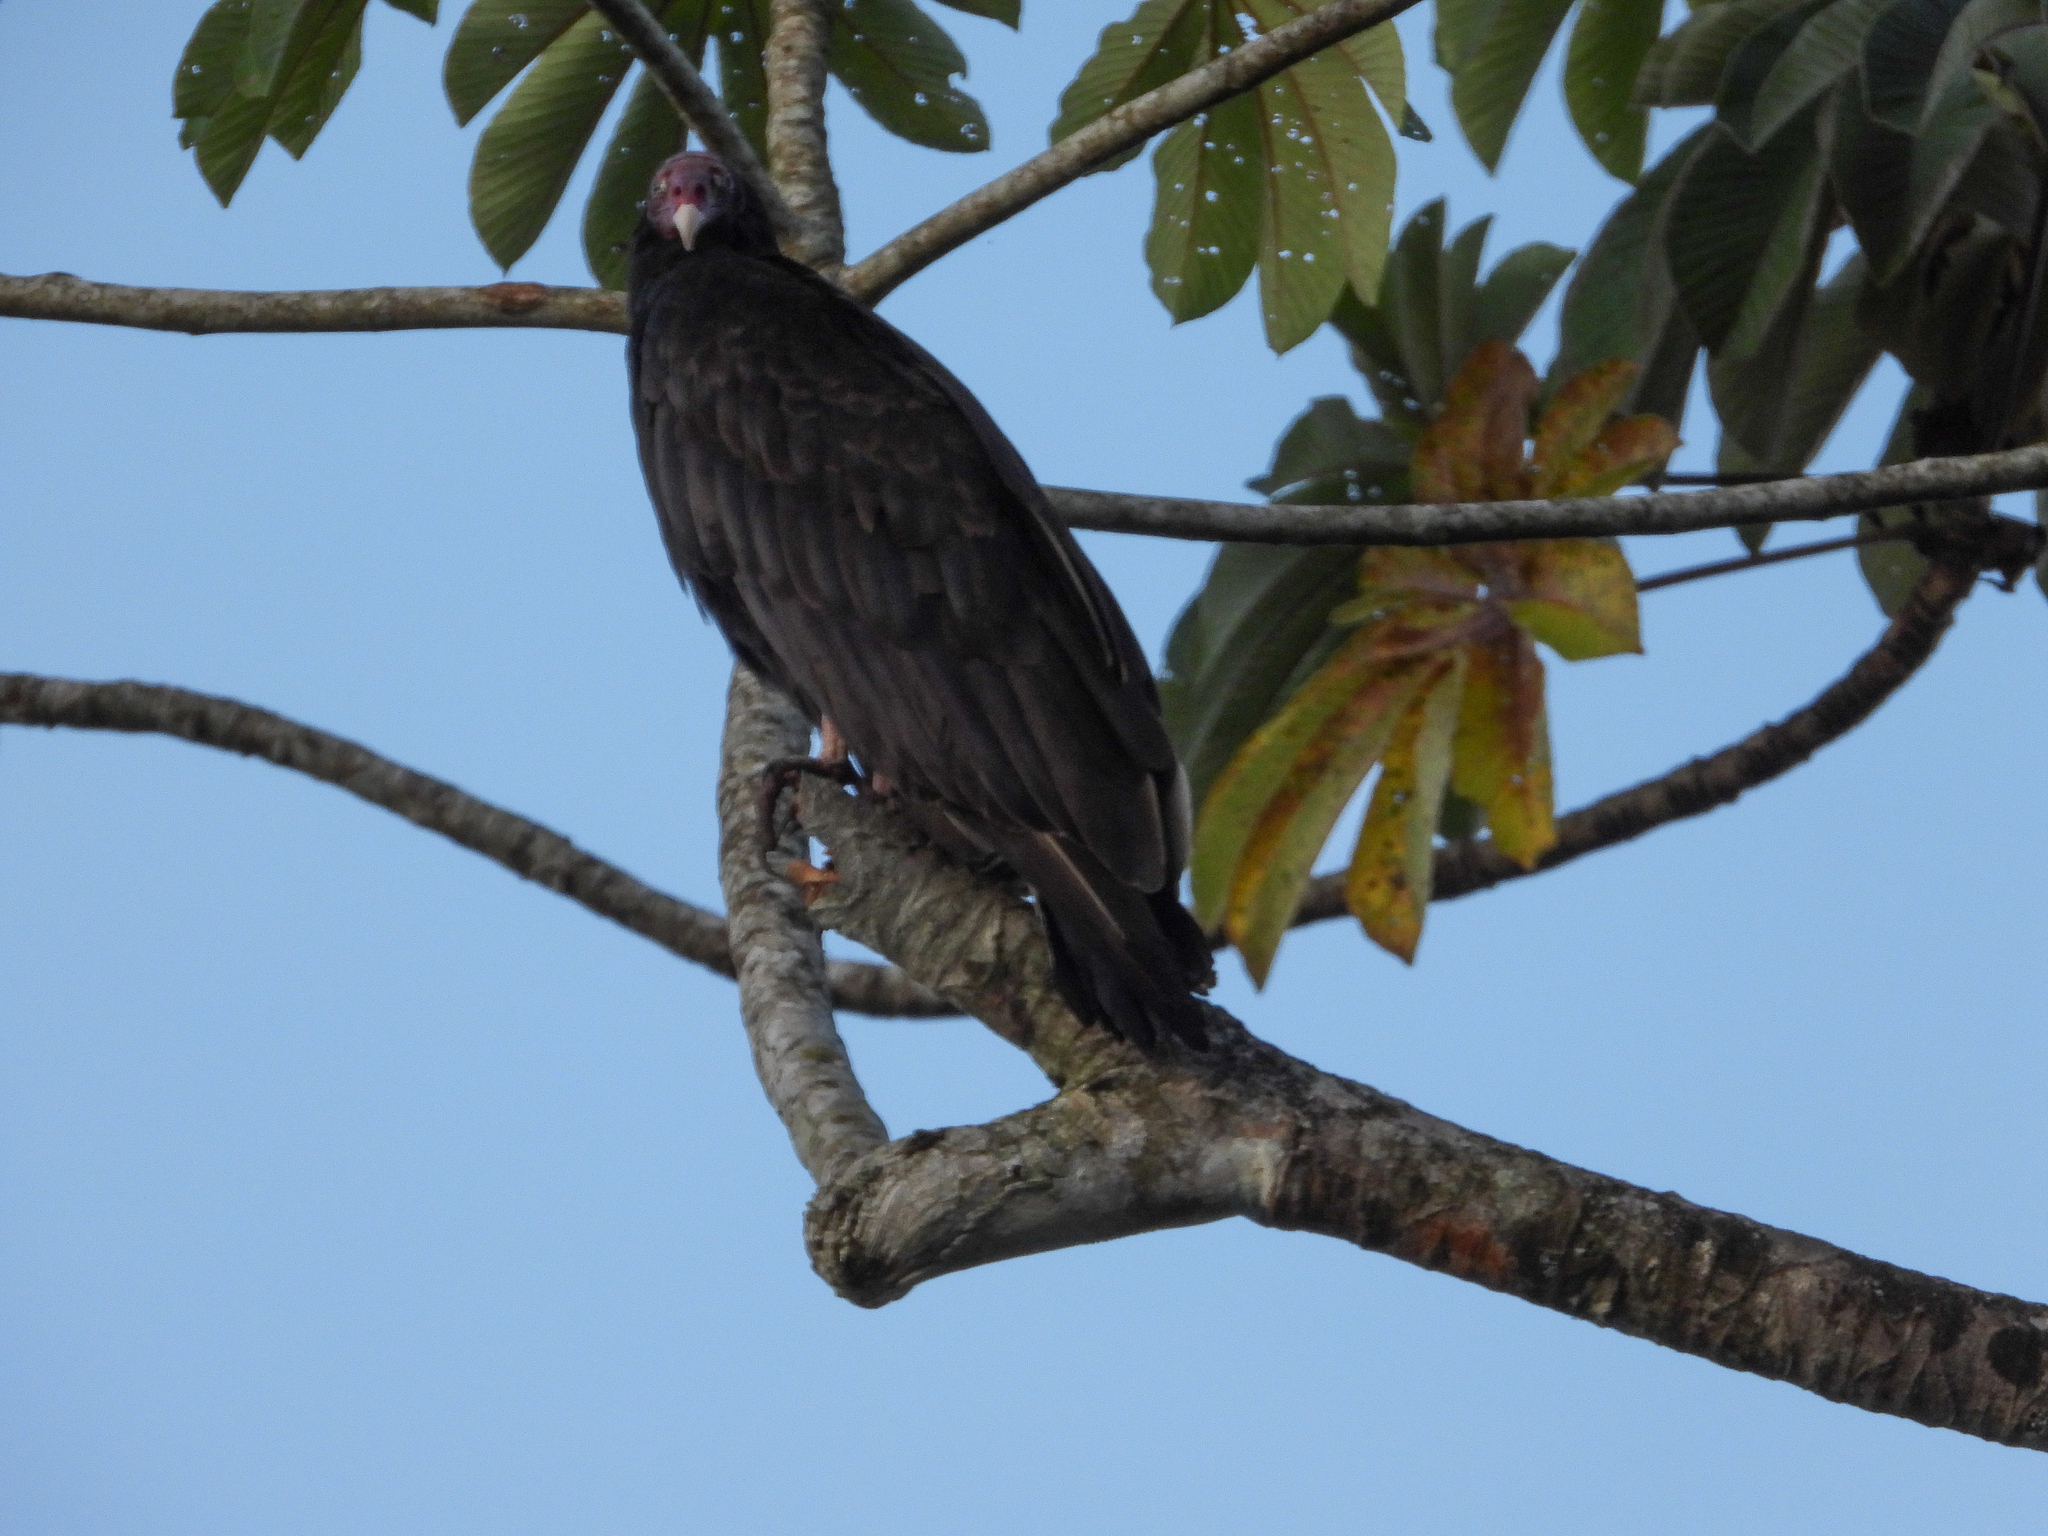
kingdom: Animalia
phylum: Chordata
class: Aves
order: Accipitriformes
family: Cathartidae
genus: Cathartes
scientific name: Cathartes aura
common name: Turkey vulture
